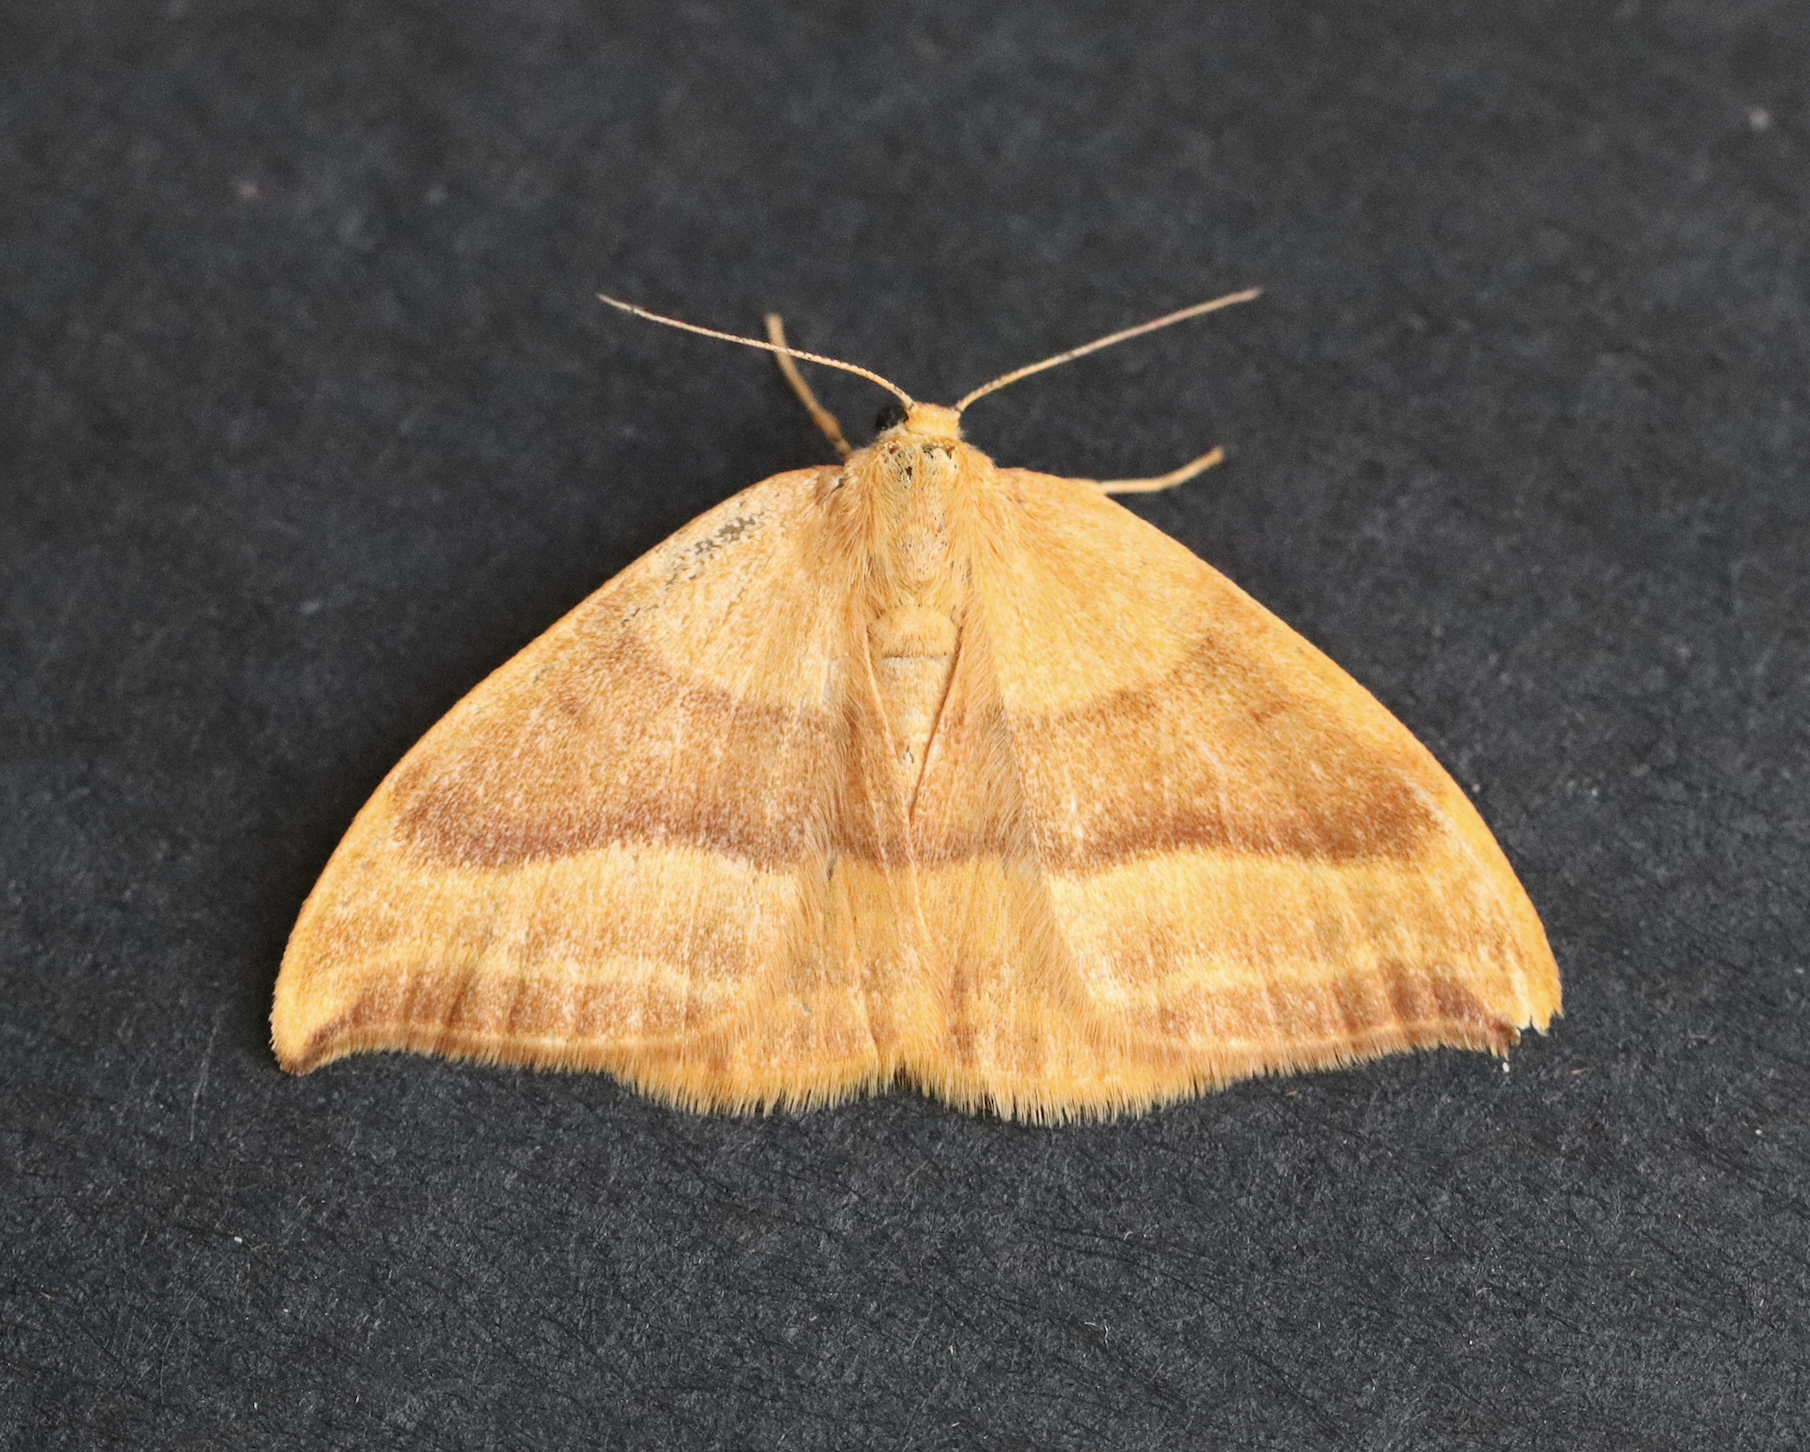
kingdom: Animalia
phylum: Arthropoda
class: Insecta
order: Lepidoptera
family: Drepanidae
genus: Watsonalla
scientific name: Watsonalla cultraria
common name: Barred hook-tip
